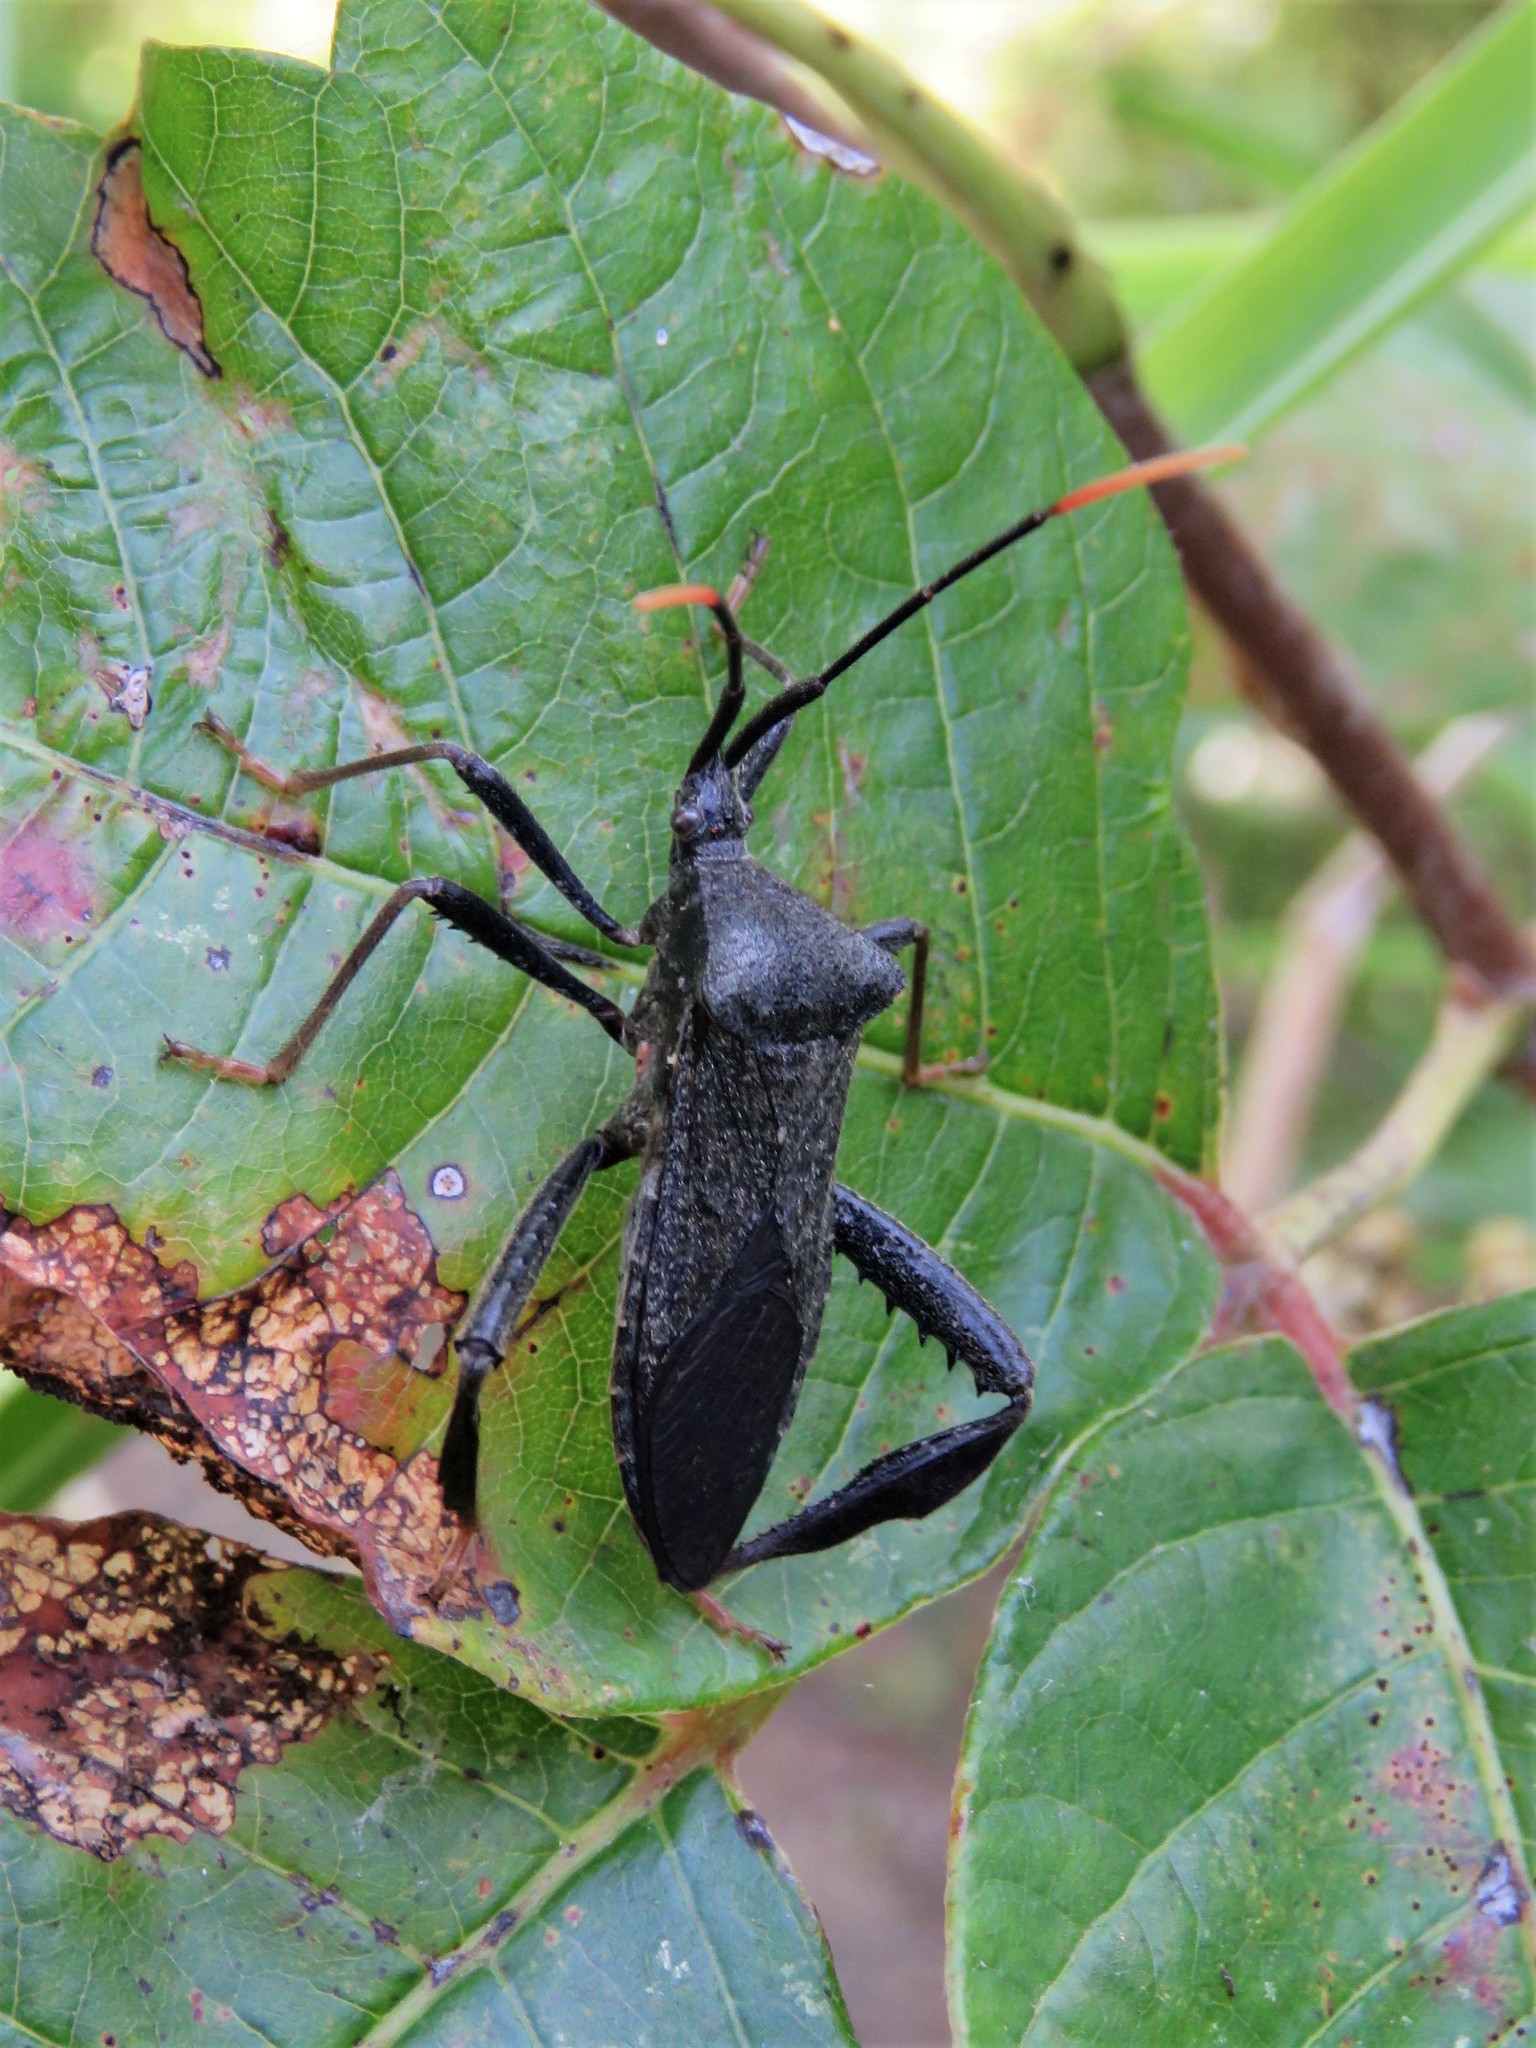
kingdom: Animalia
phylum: Arthropoda
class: Insecta
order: Hemiptera
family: Coreidae
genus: Acanthocephala
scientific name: Acanthocephala terminalis
